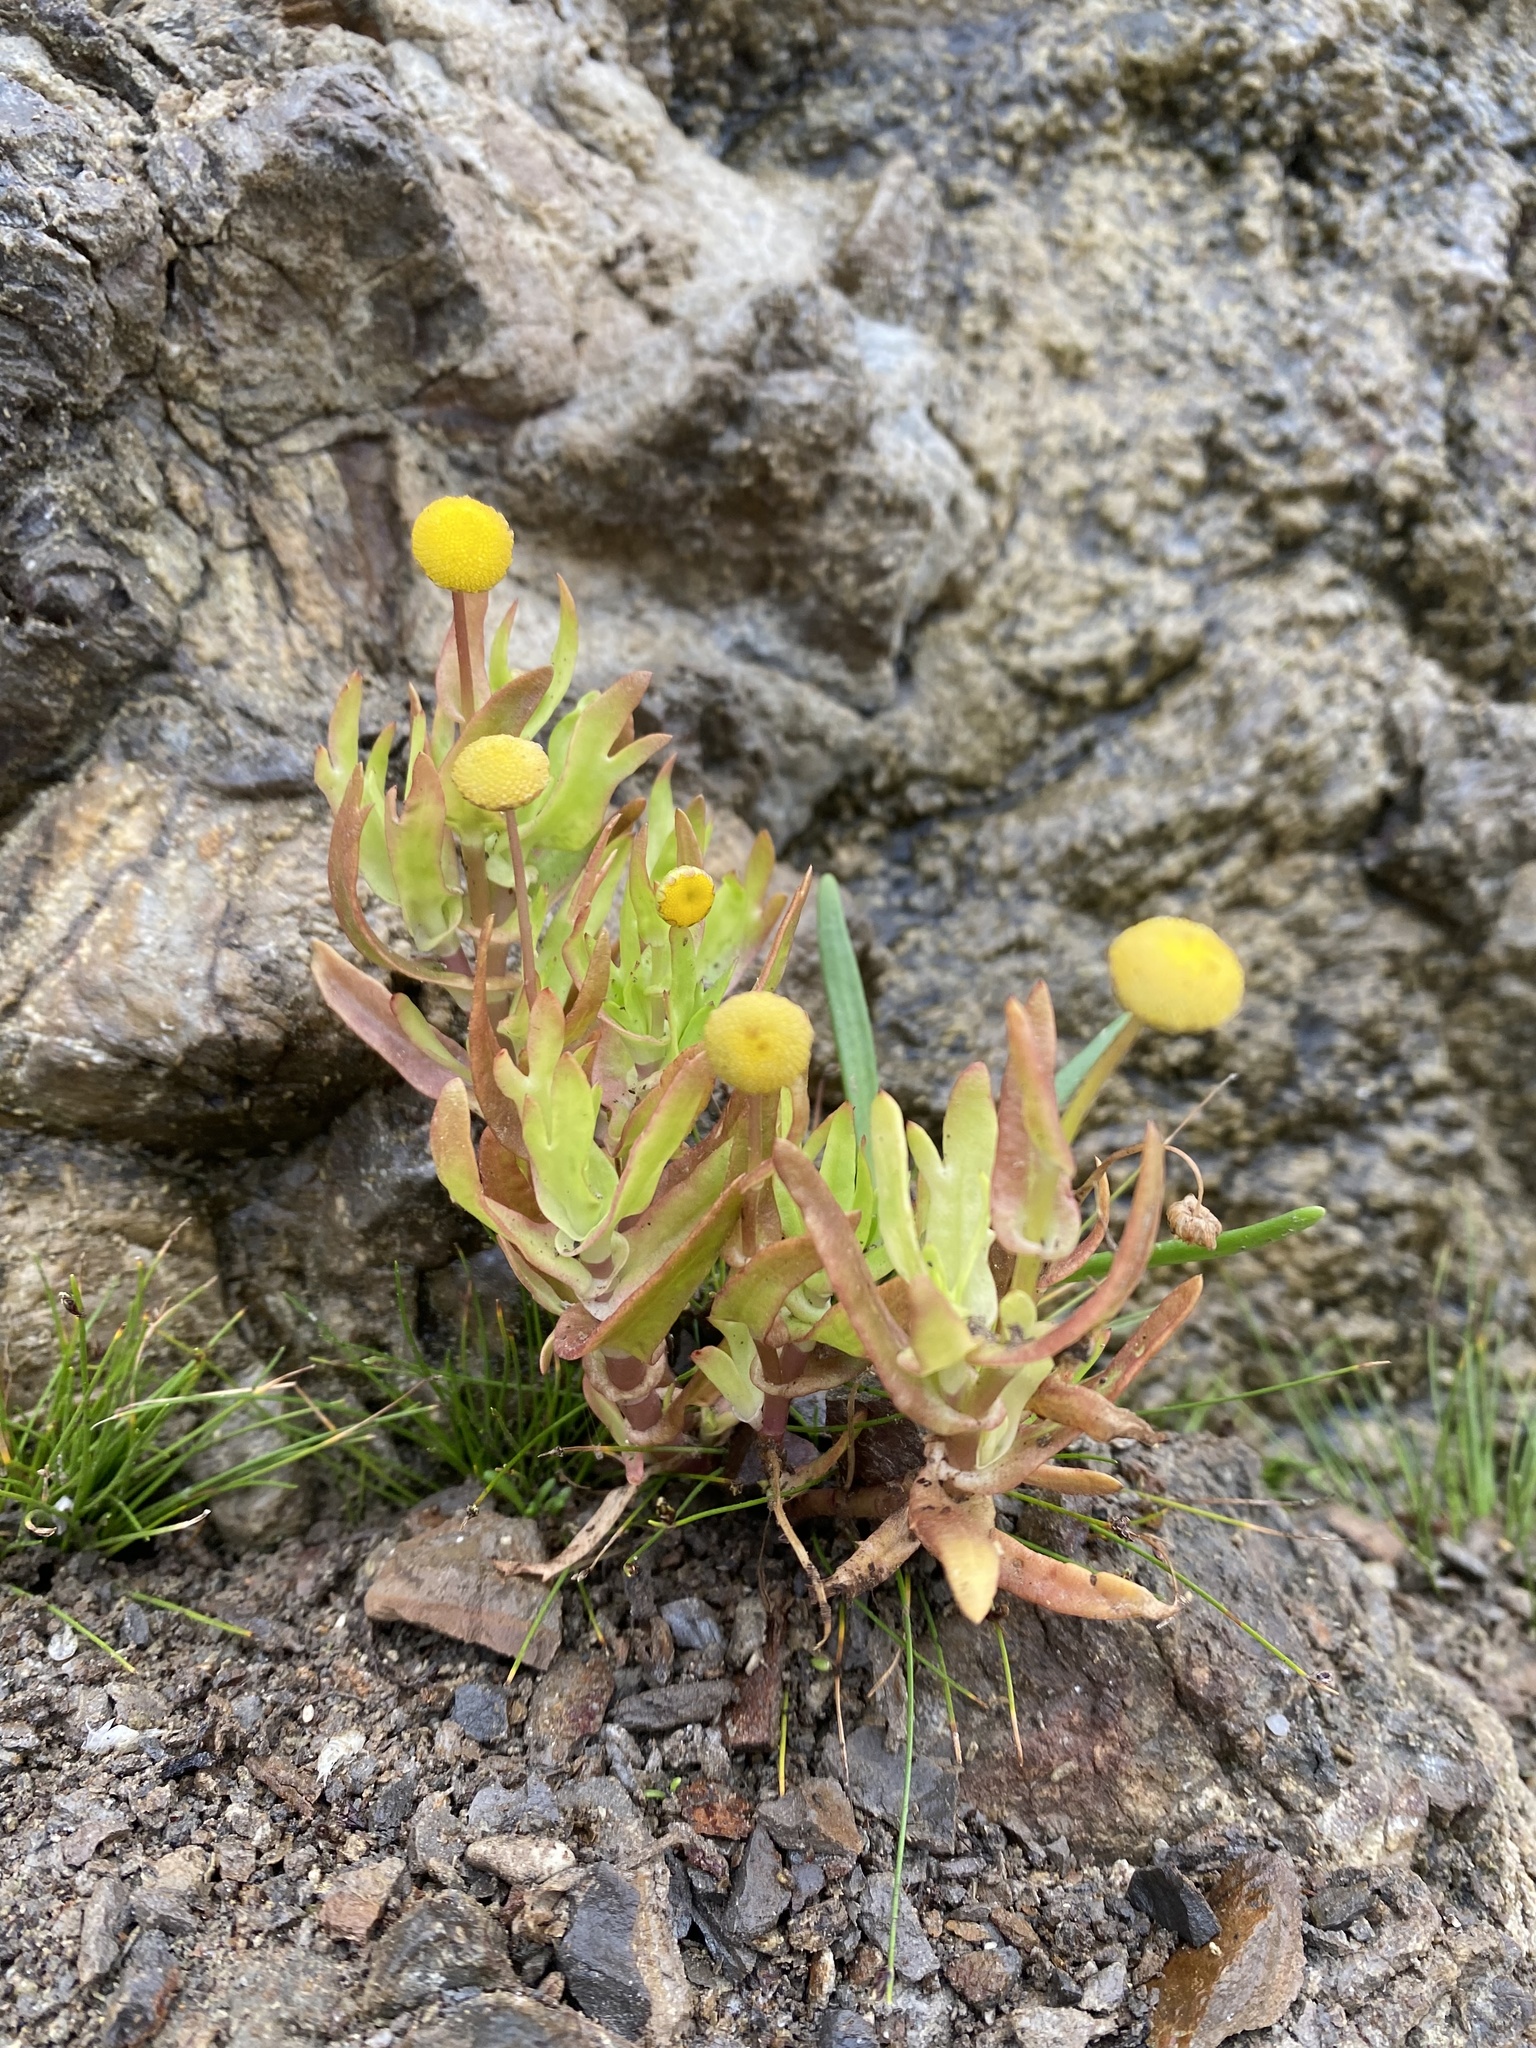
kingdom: Plantae
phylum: Tracheophyta
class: Magnoliopsida
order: Asterales
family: Asteraceae
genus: Cotula
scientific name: Cotula coronopifolia
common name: Buttonweed
